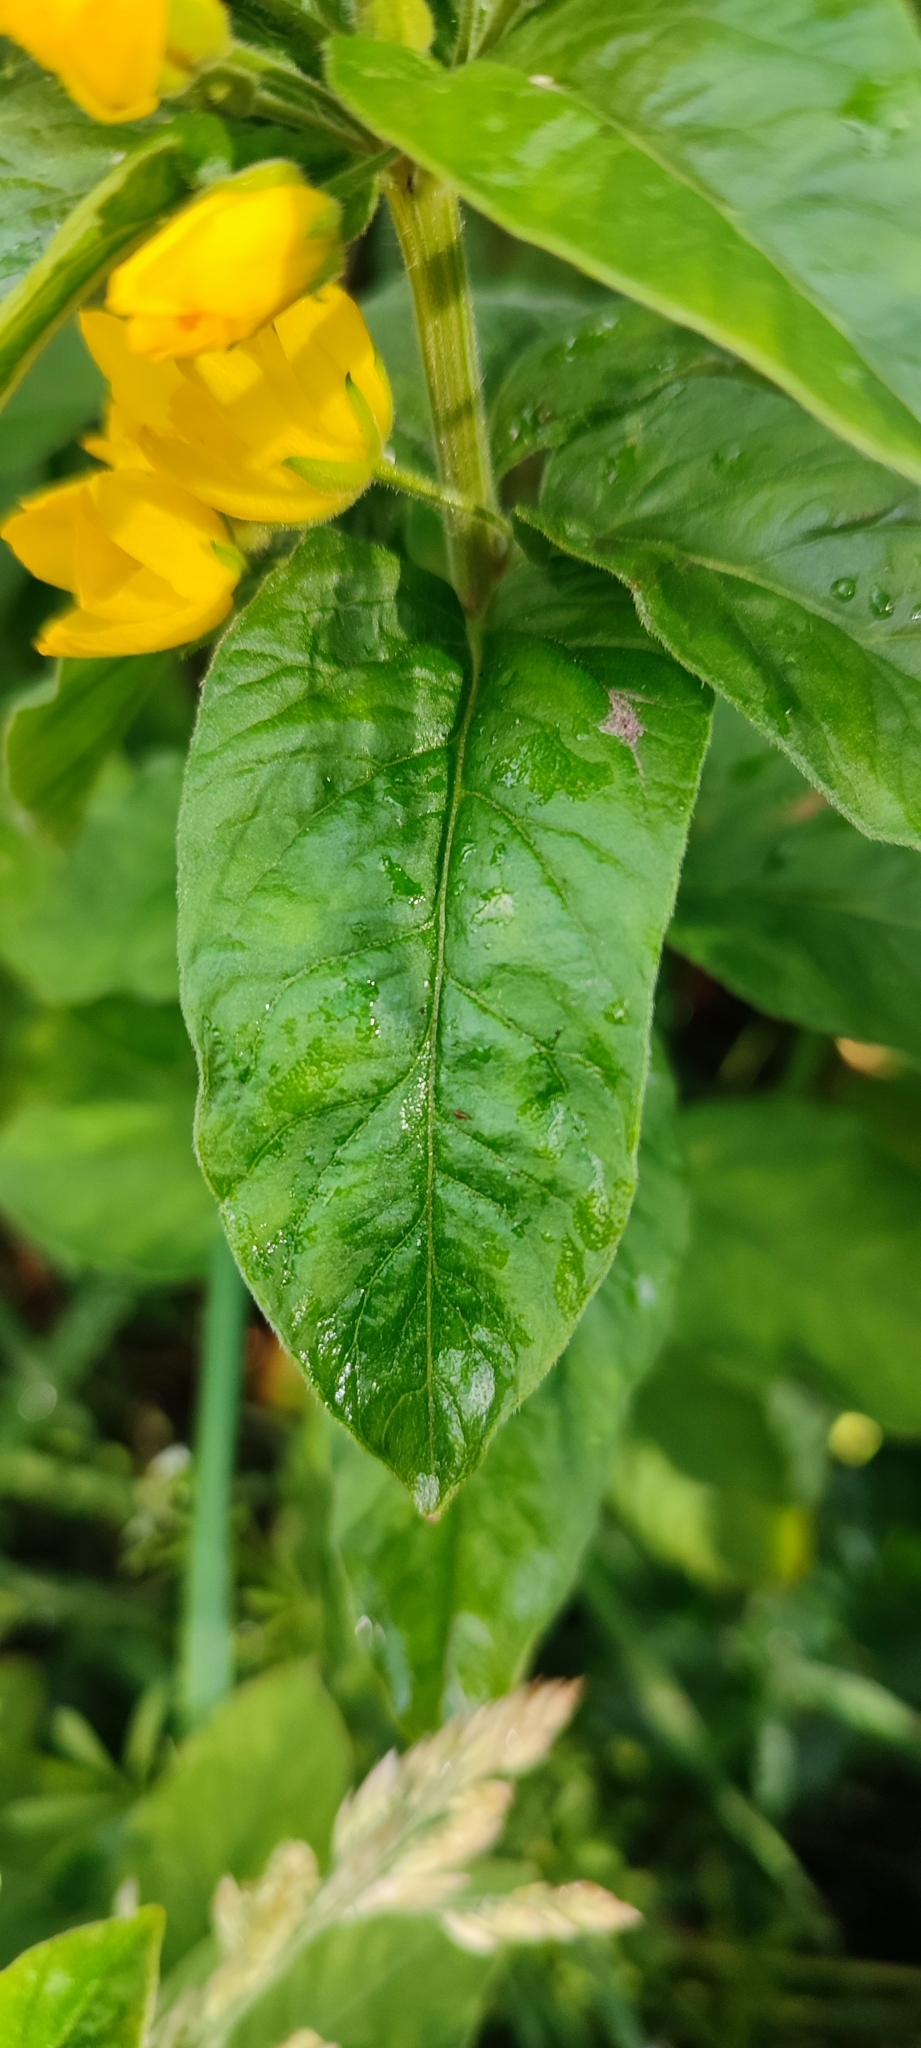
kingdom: Plantae
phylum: Tracheophyta
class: Magnoliopsida
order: Ericales
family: Primulaceae
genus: Lysimachia
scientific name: Lysimachia punctata
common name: Dotted loosestrife
